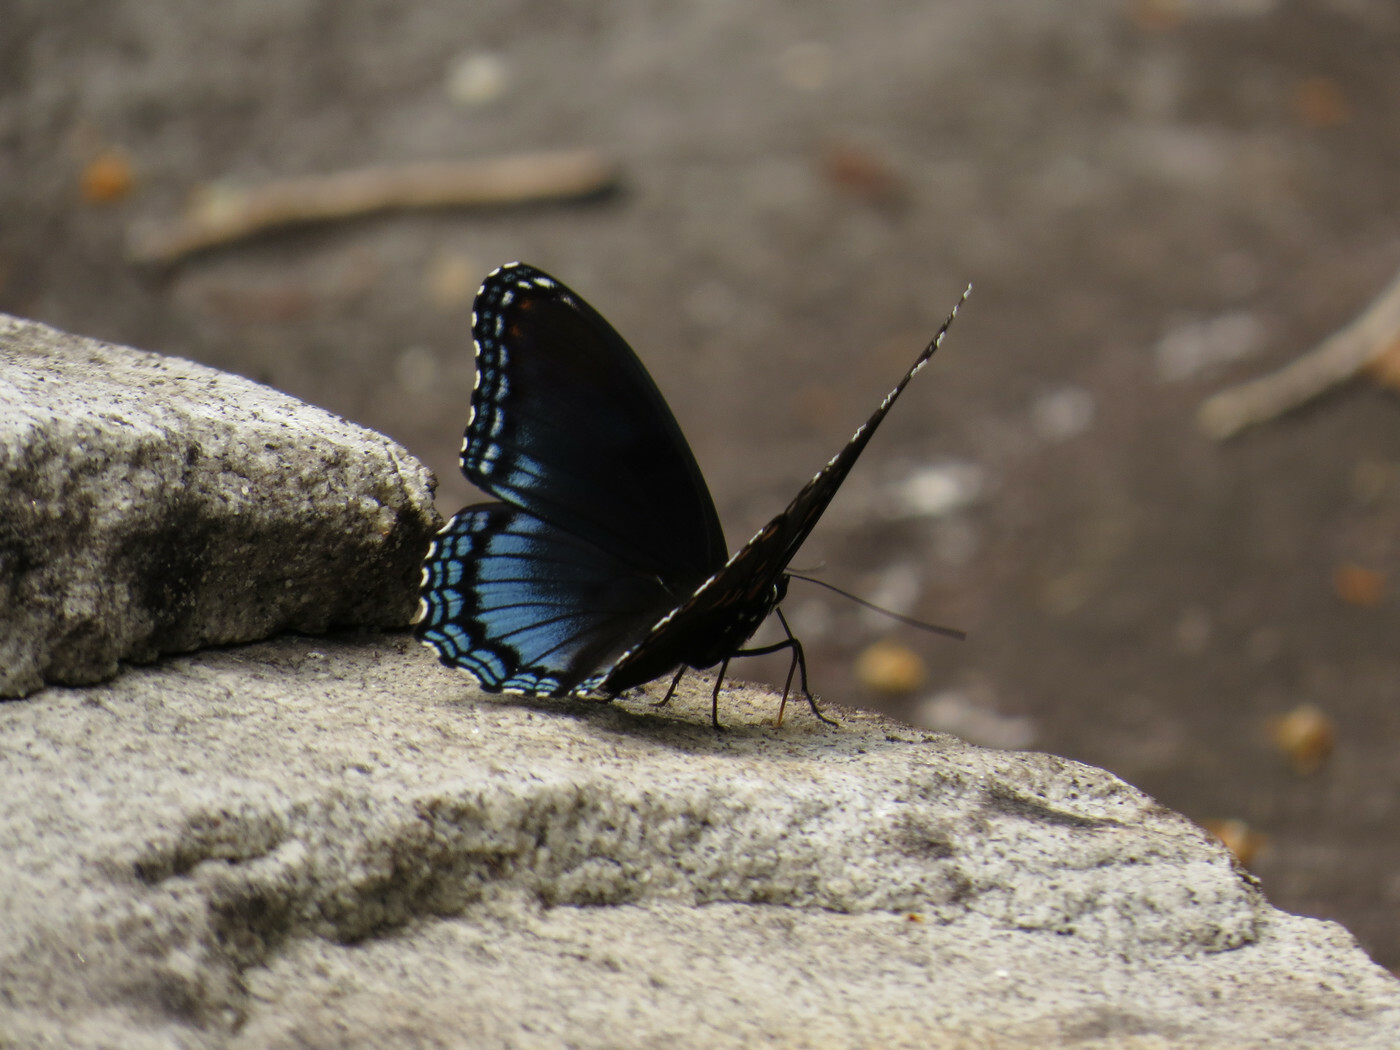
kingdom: Animalia
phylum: Arthropoda
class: Insecta
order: Lepidoptera
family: Nymphalidae
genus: Limenitis
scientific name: Limenitis astyanax
